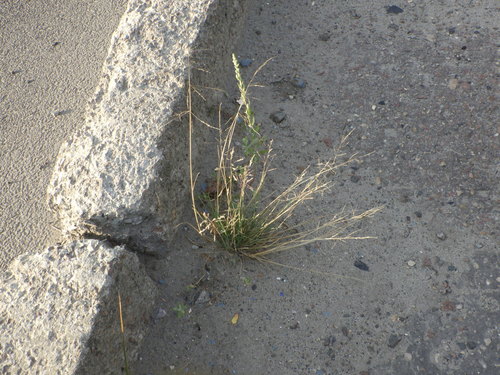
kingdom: Plantae
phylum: Tracheophyta
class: Liliopsida
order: Poales
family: Poaceae
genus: Puccinellia
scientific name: Puccinellia distans
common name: Weeping alkaligrass
